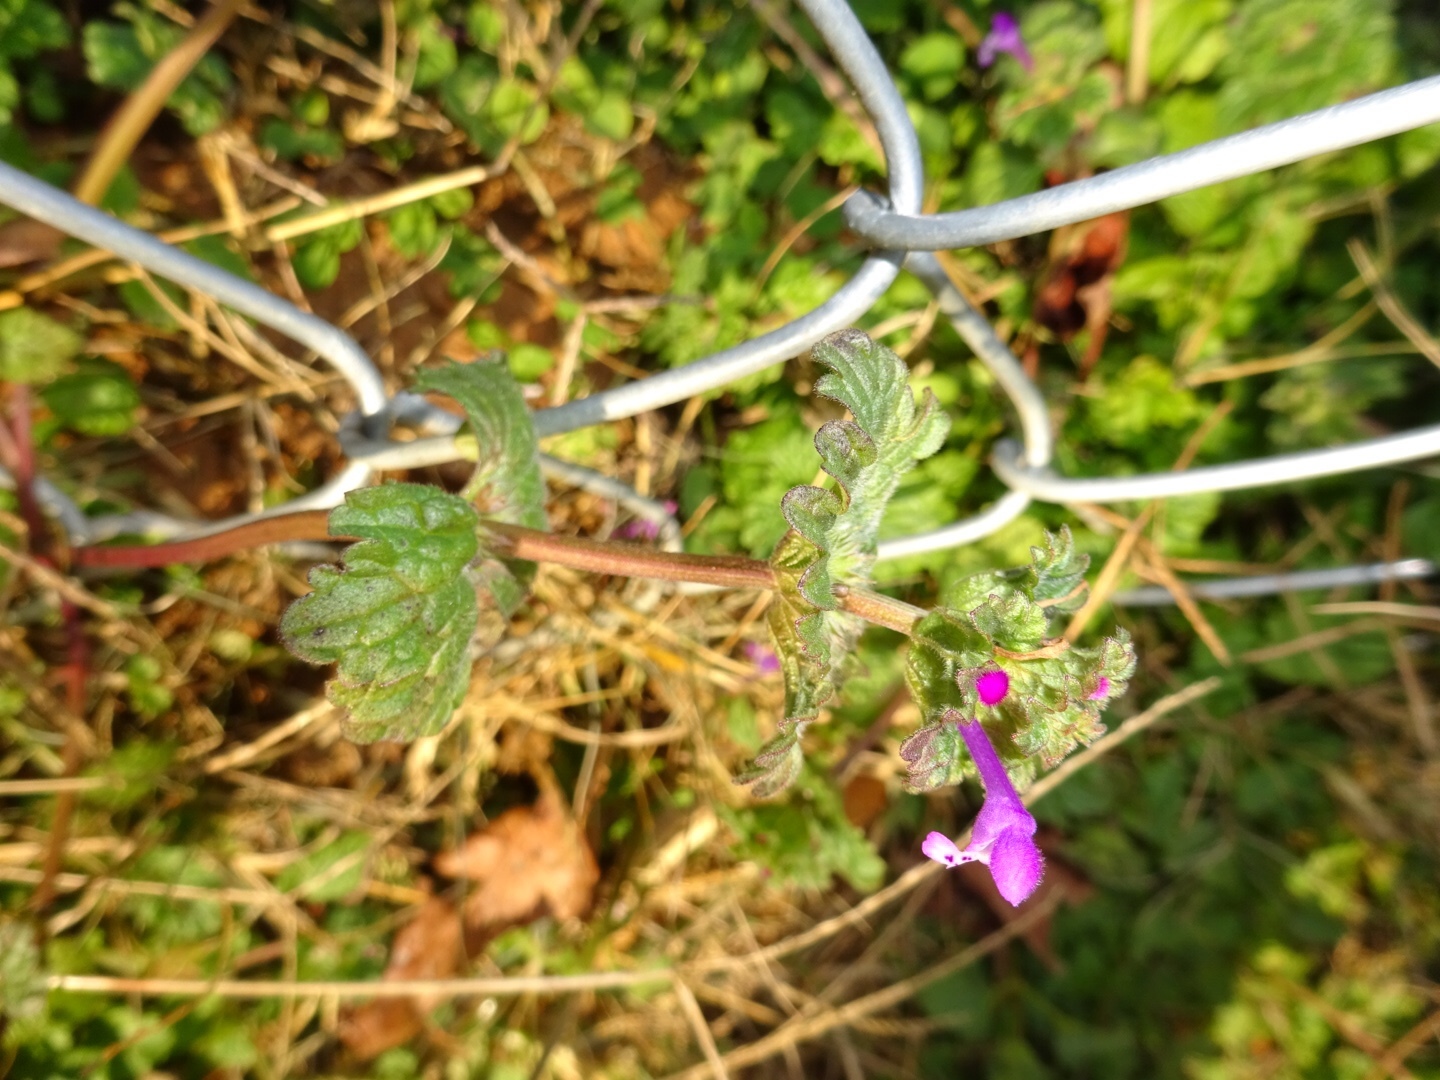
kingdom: Plantae
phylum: Tracheophyta
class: Magnoliopsida
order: Lamiales
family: Lamiaceae
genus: Lamium
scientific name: Lamium amplexicaule
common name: Henbit dead-nettle
